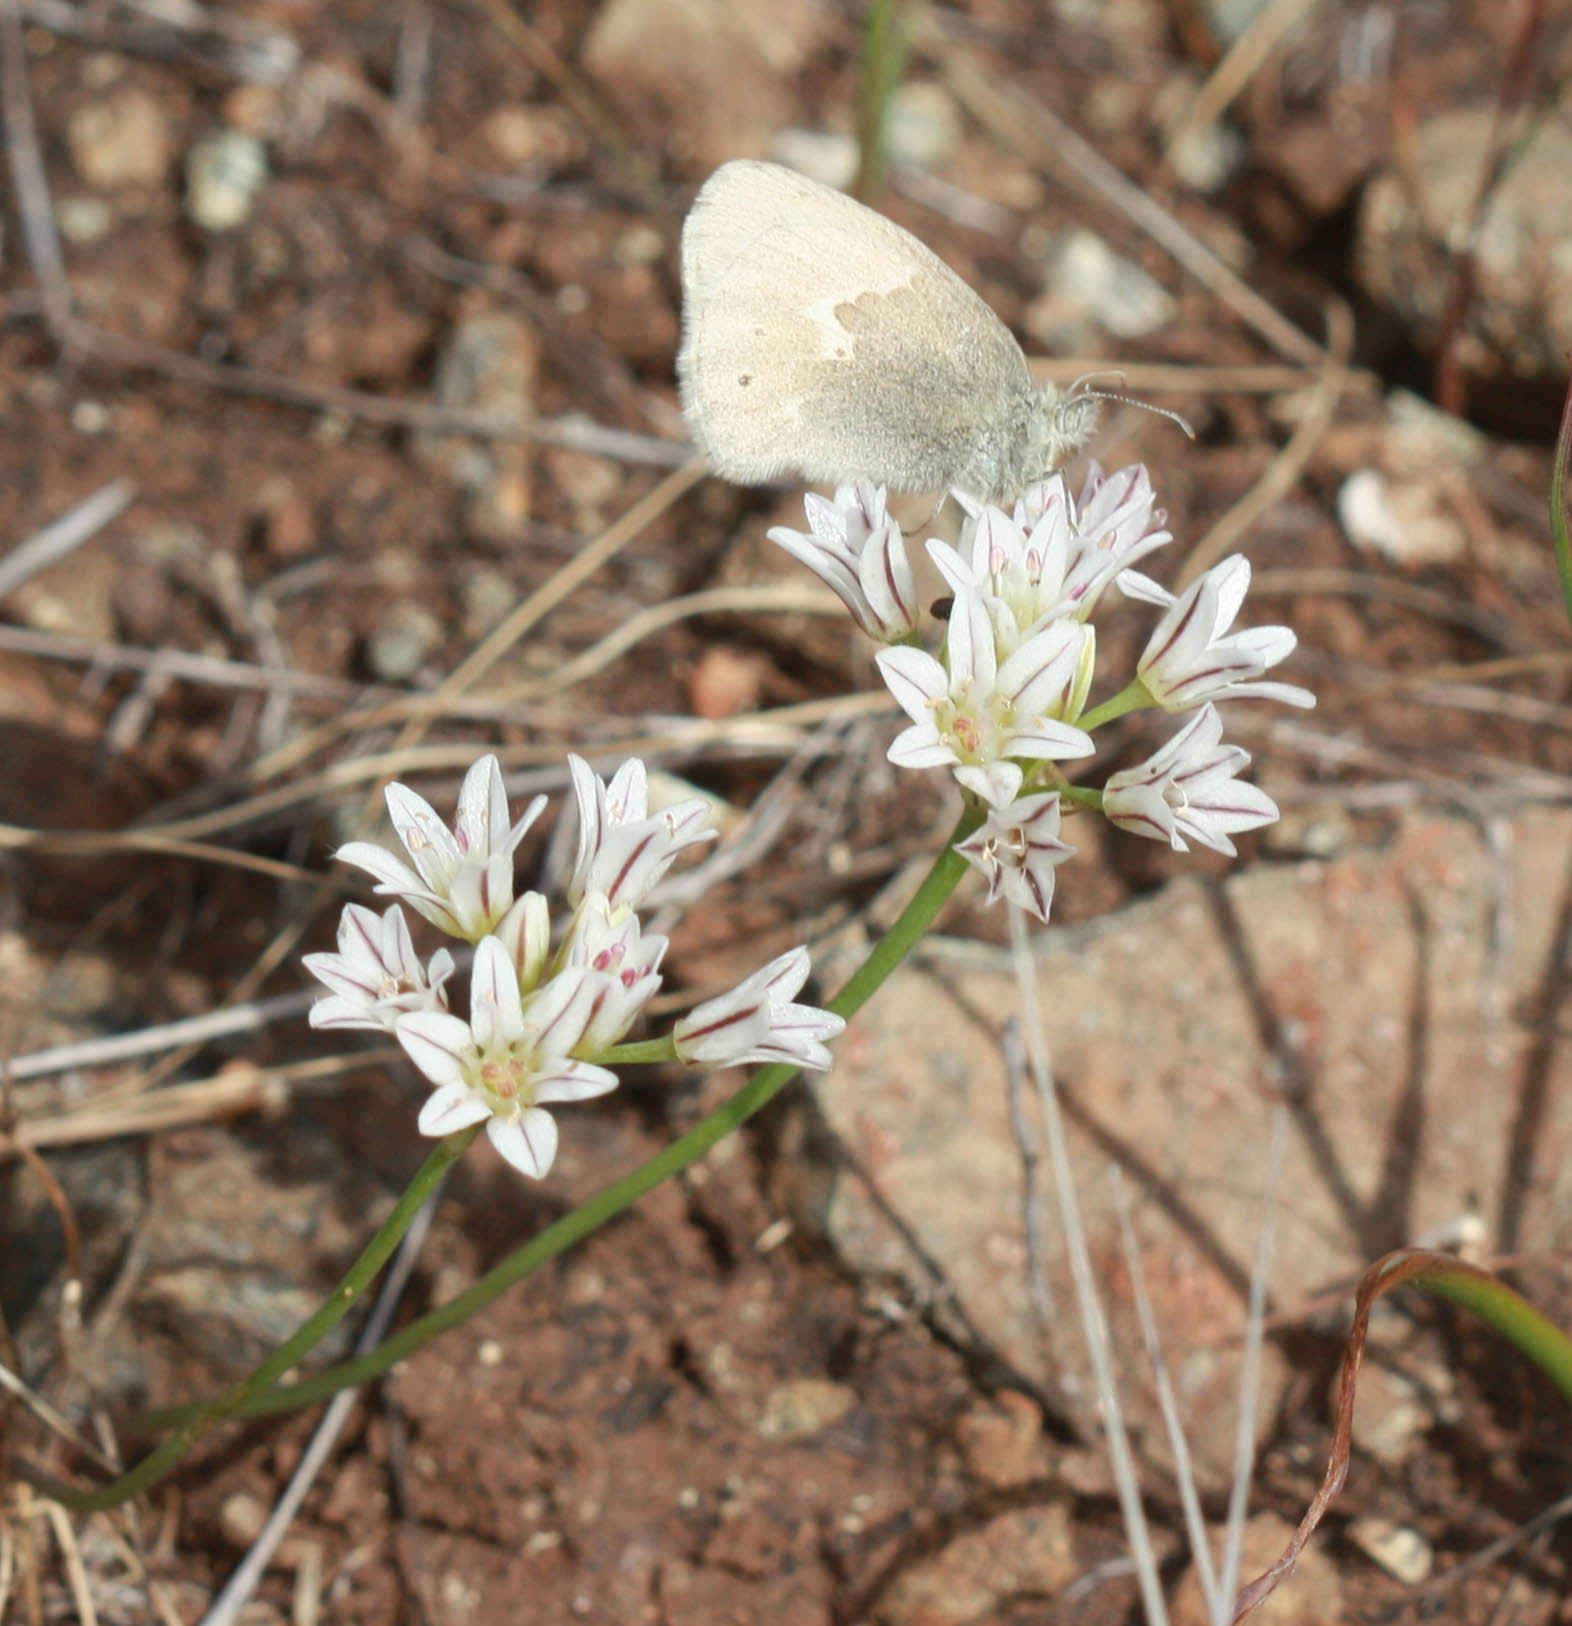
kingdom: Animalia
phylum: Arthropoda
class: Insecta
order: Lepidoptera
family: Nymphalidae
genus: Coenonympha
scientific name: Coenonympha california
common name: Common ringlet
